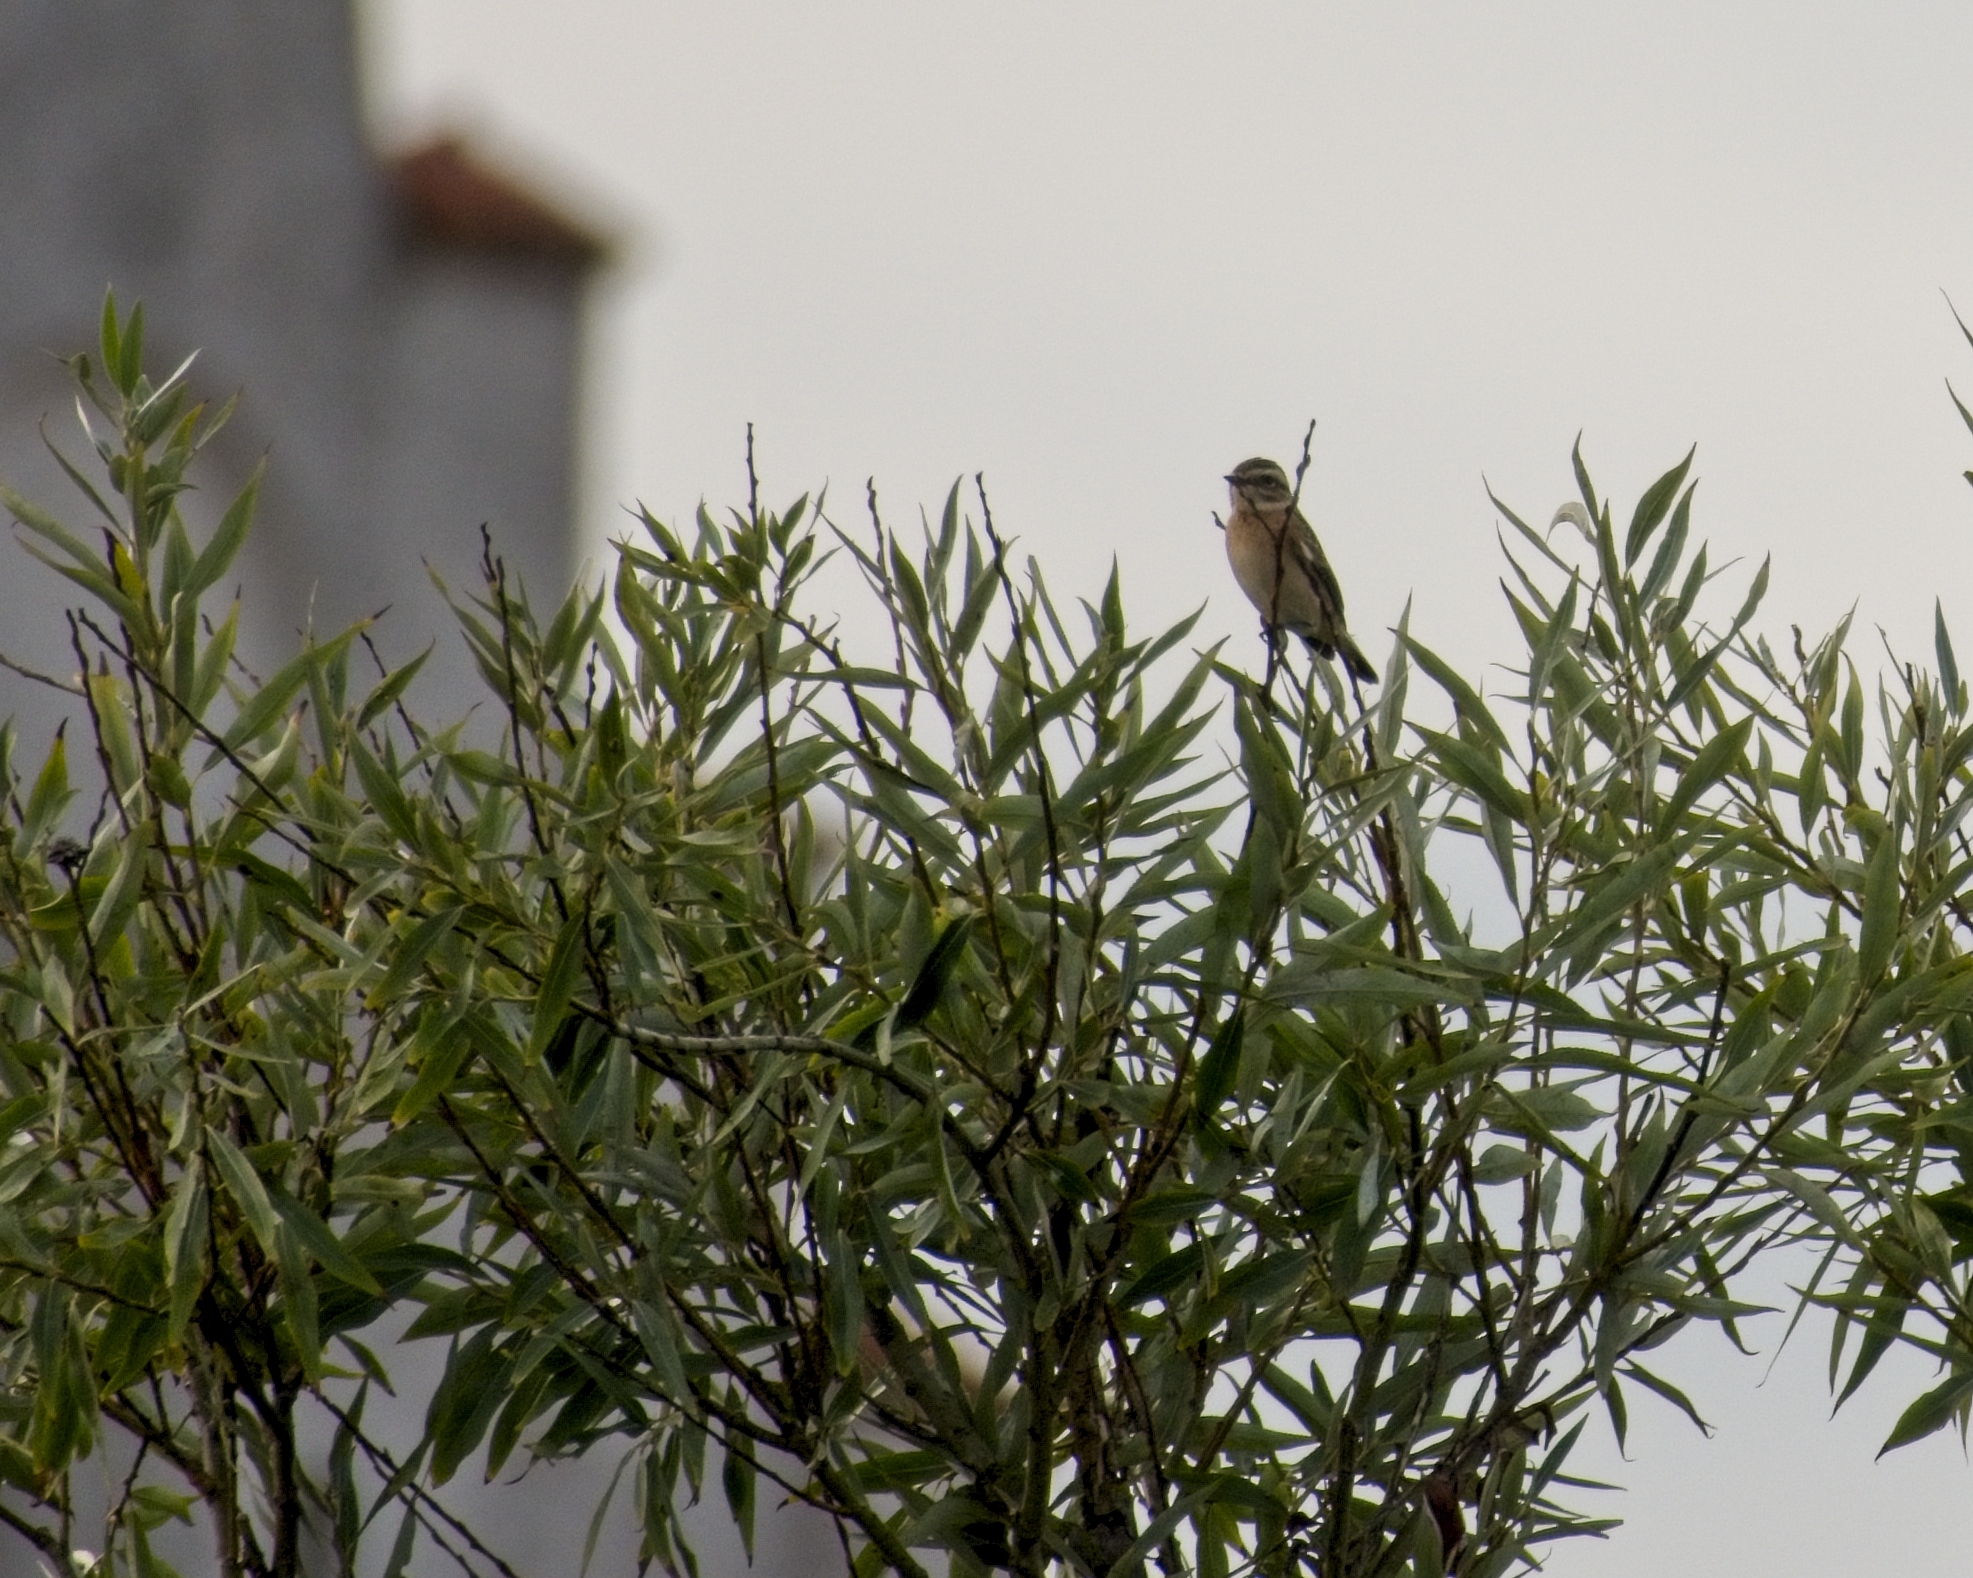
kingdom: Animalia
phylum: Chordata
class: Aves
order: Passeriformes
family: Muscicapidae
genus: Saxicola
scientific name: Saxicola rubetra
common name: Whinchat
